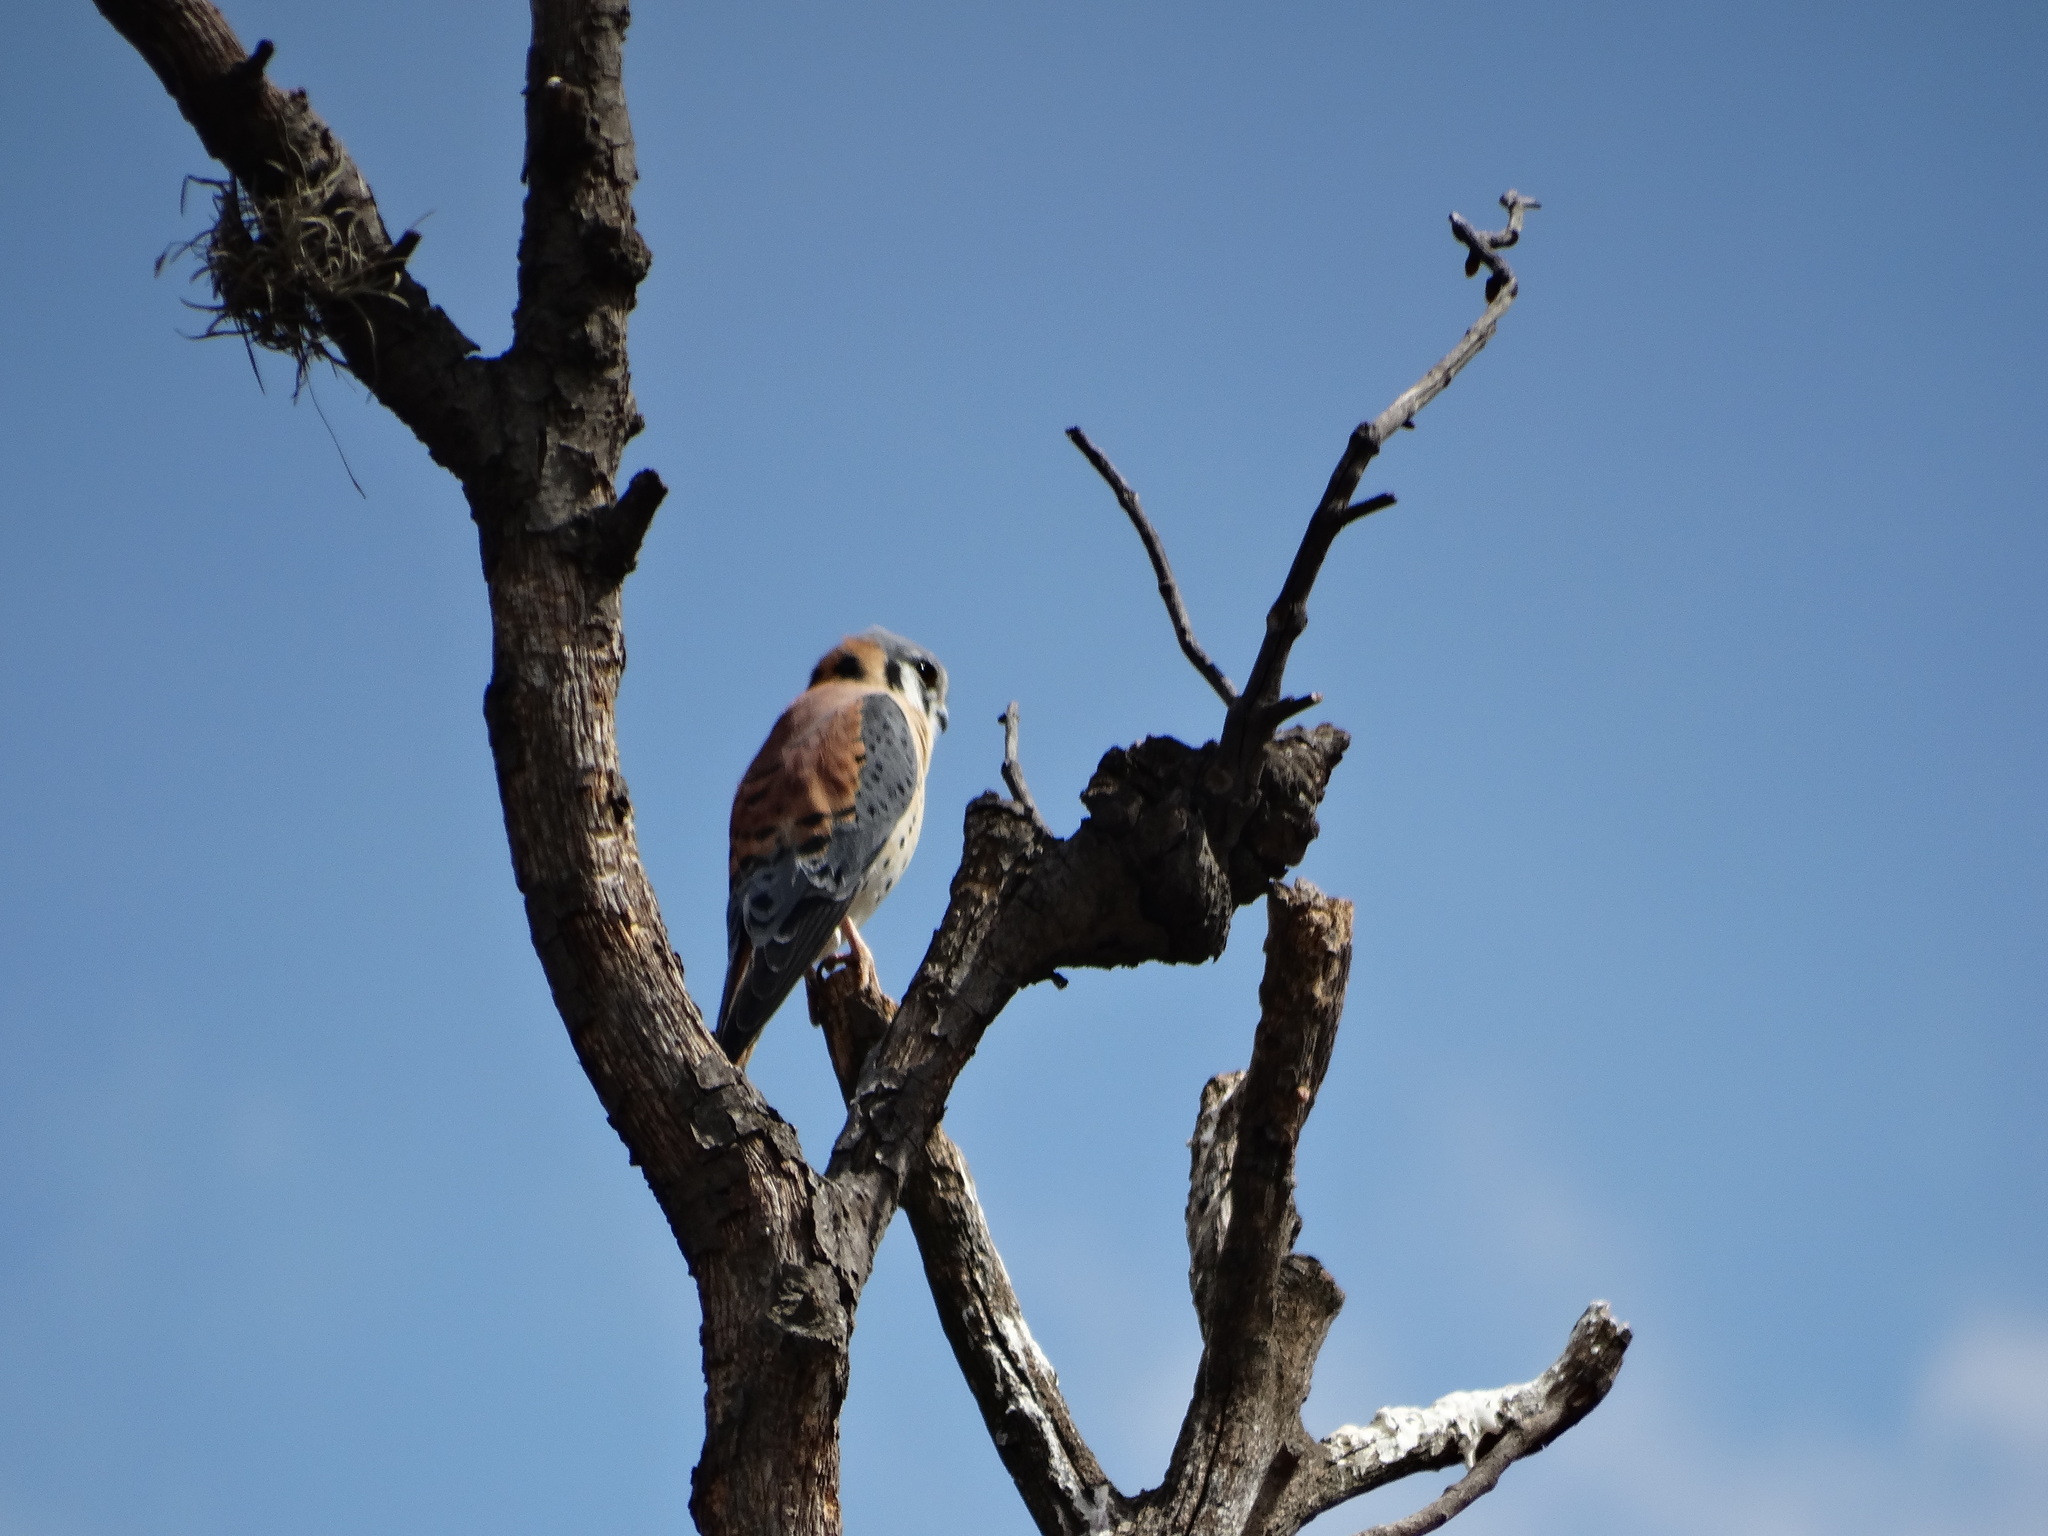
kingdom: Animalia
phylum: Chordata
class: Aves
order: Falconiformes
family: Falconidae
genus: Falco
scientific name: Falco sparverius
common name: American kestrel
